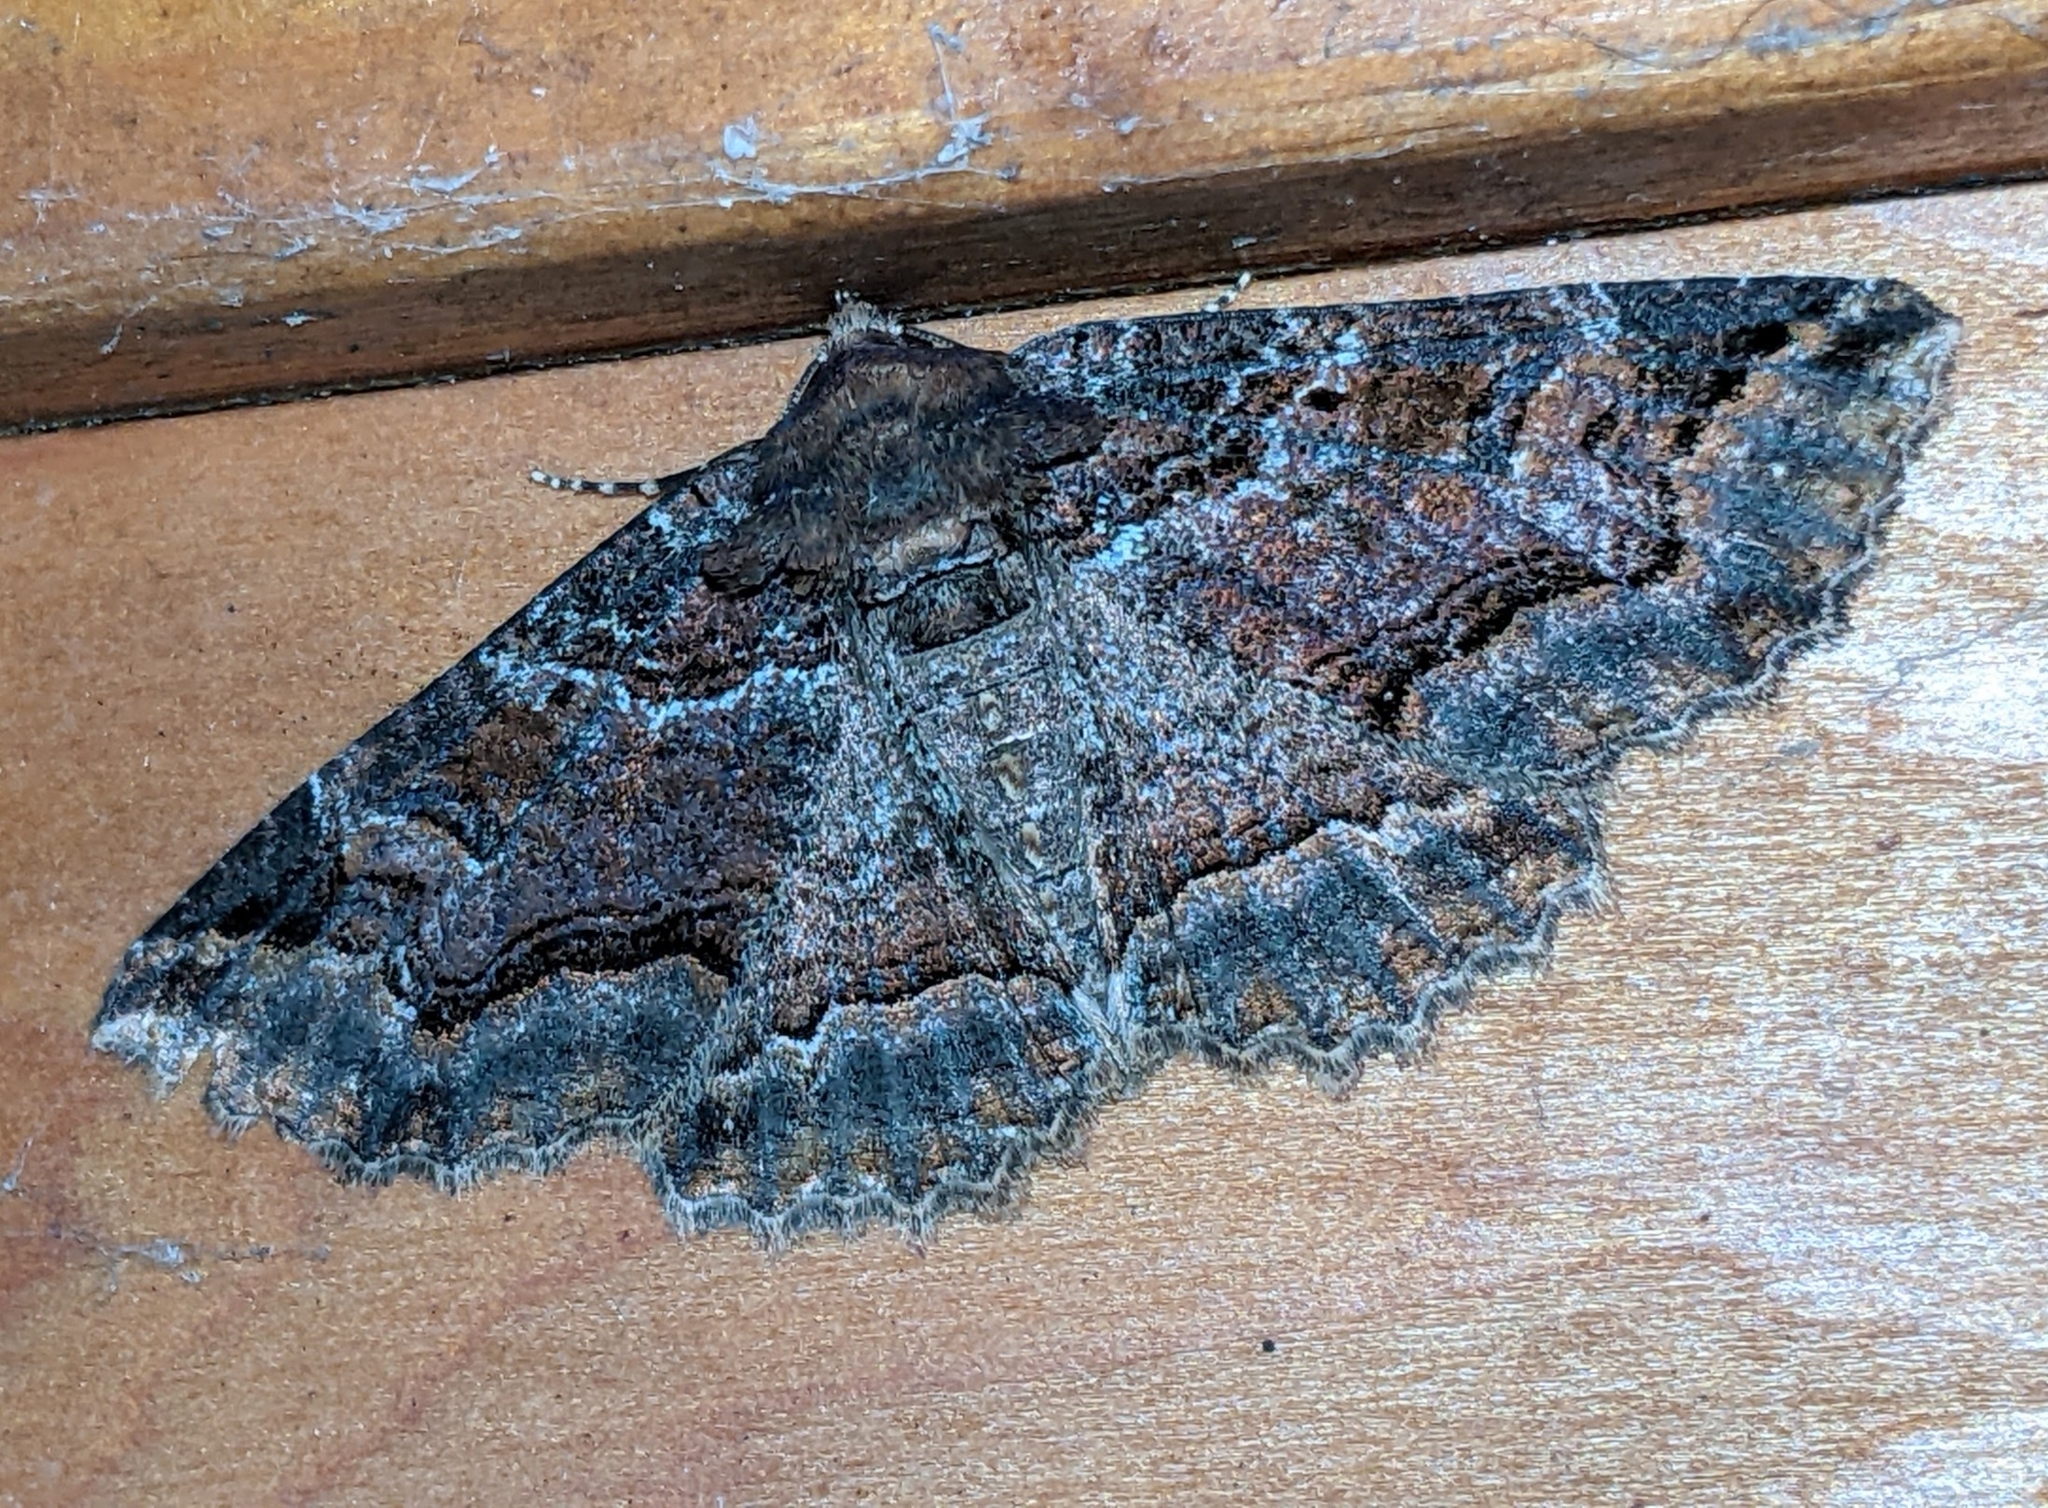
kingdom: Animalia
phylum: Arthropoda
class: Insecta
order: Lepidoptera
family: Erebidae
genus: Zale
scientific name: Zale minerea
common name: Colorful zale moth
